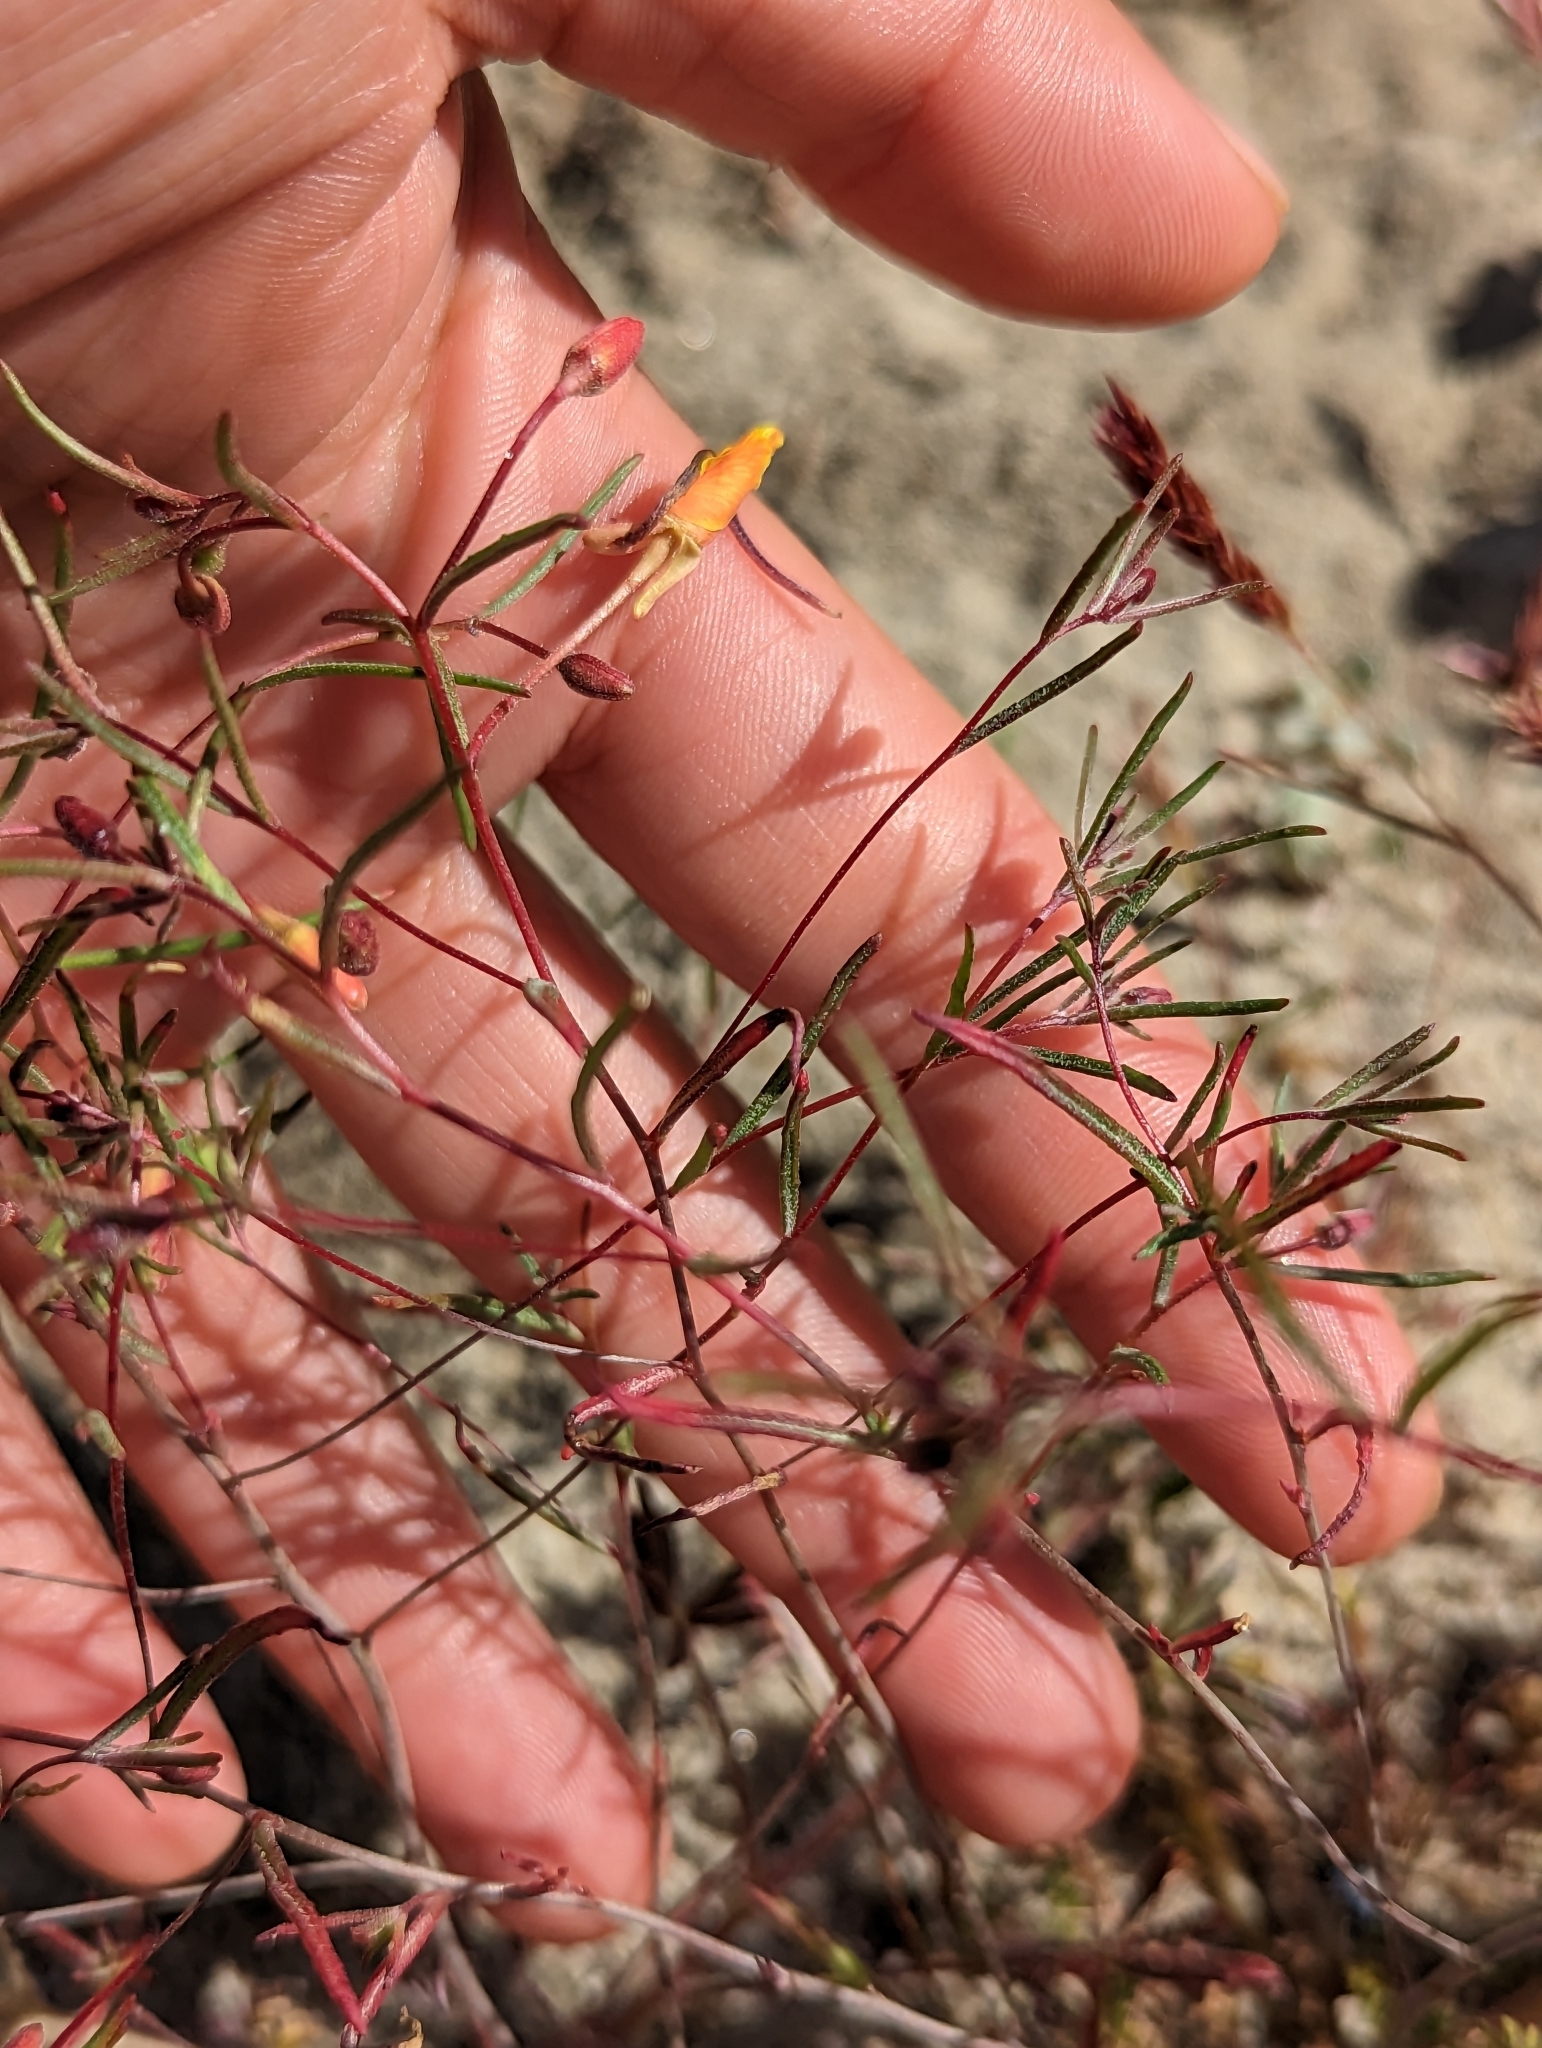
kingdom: Plantae
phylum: Tracheophyta
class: Magnoliopsida
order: Myrtales
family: Onagraceae
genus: Camissonia
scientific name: Camissonia campestris
